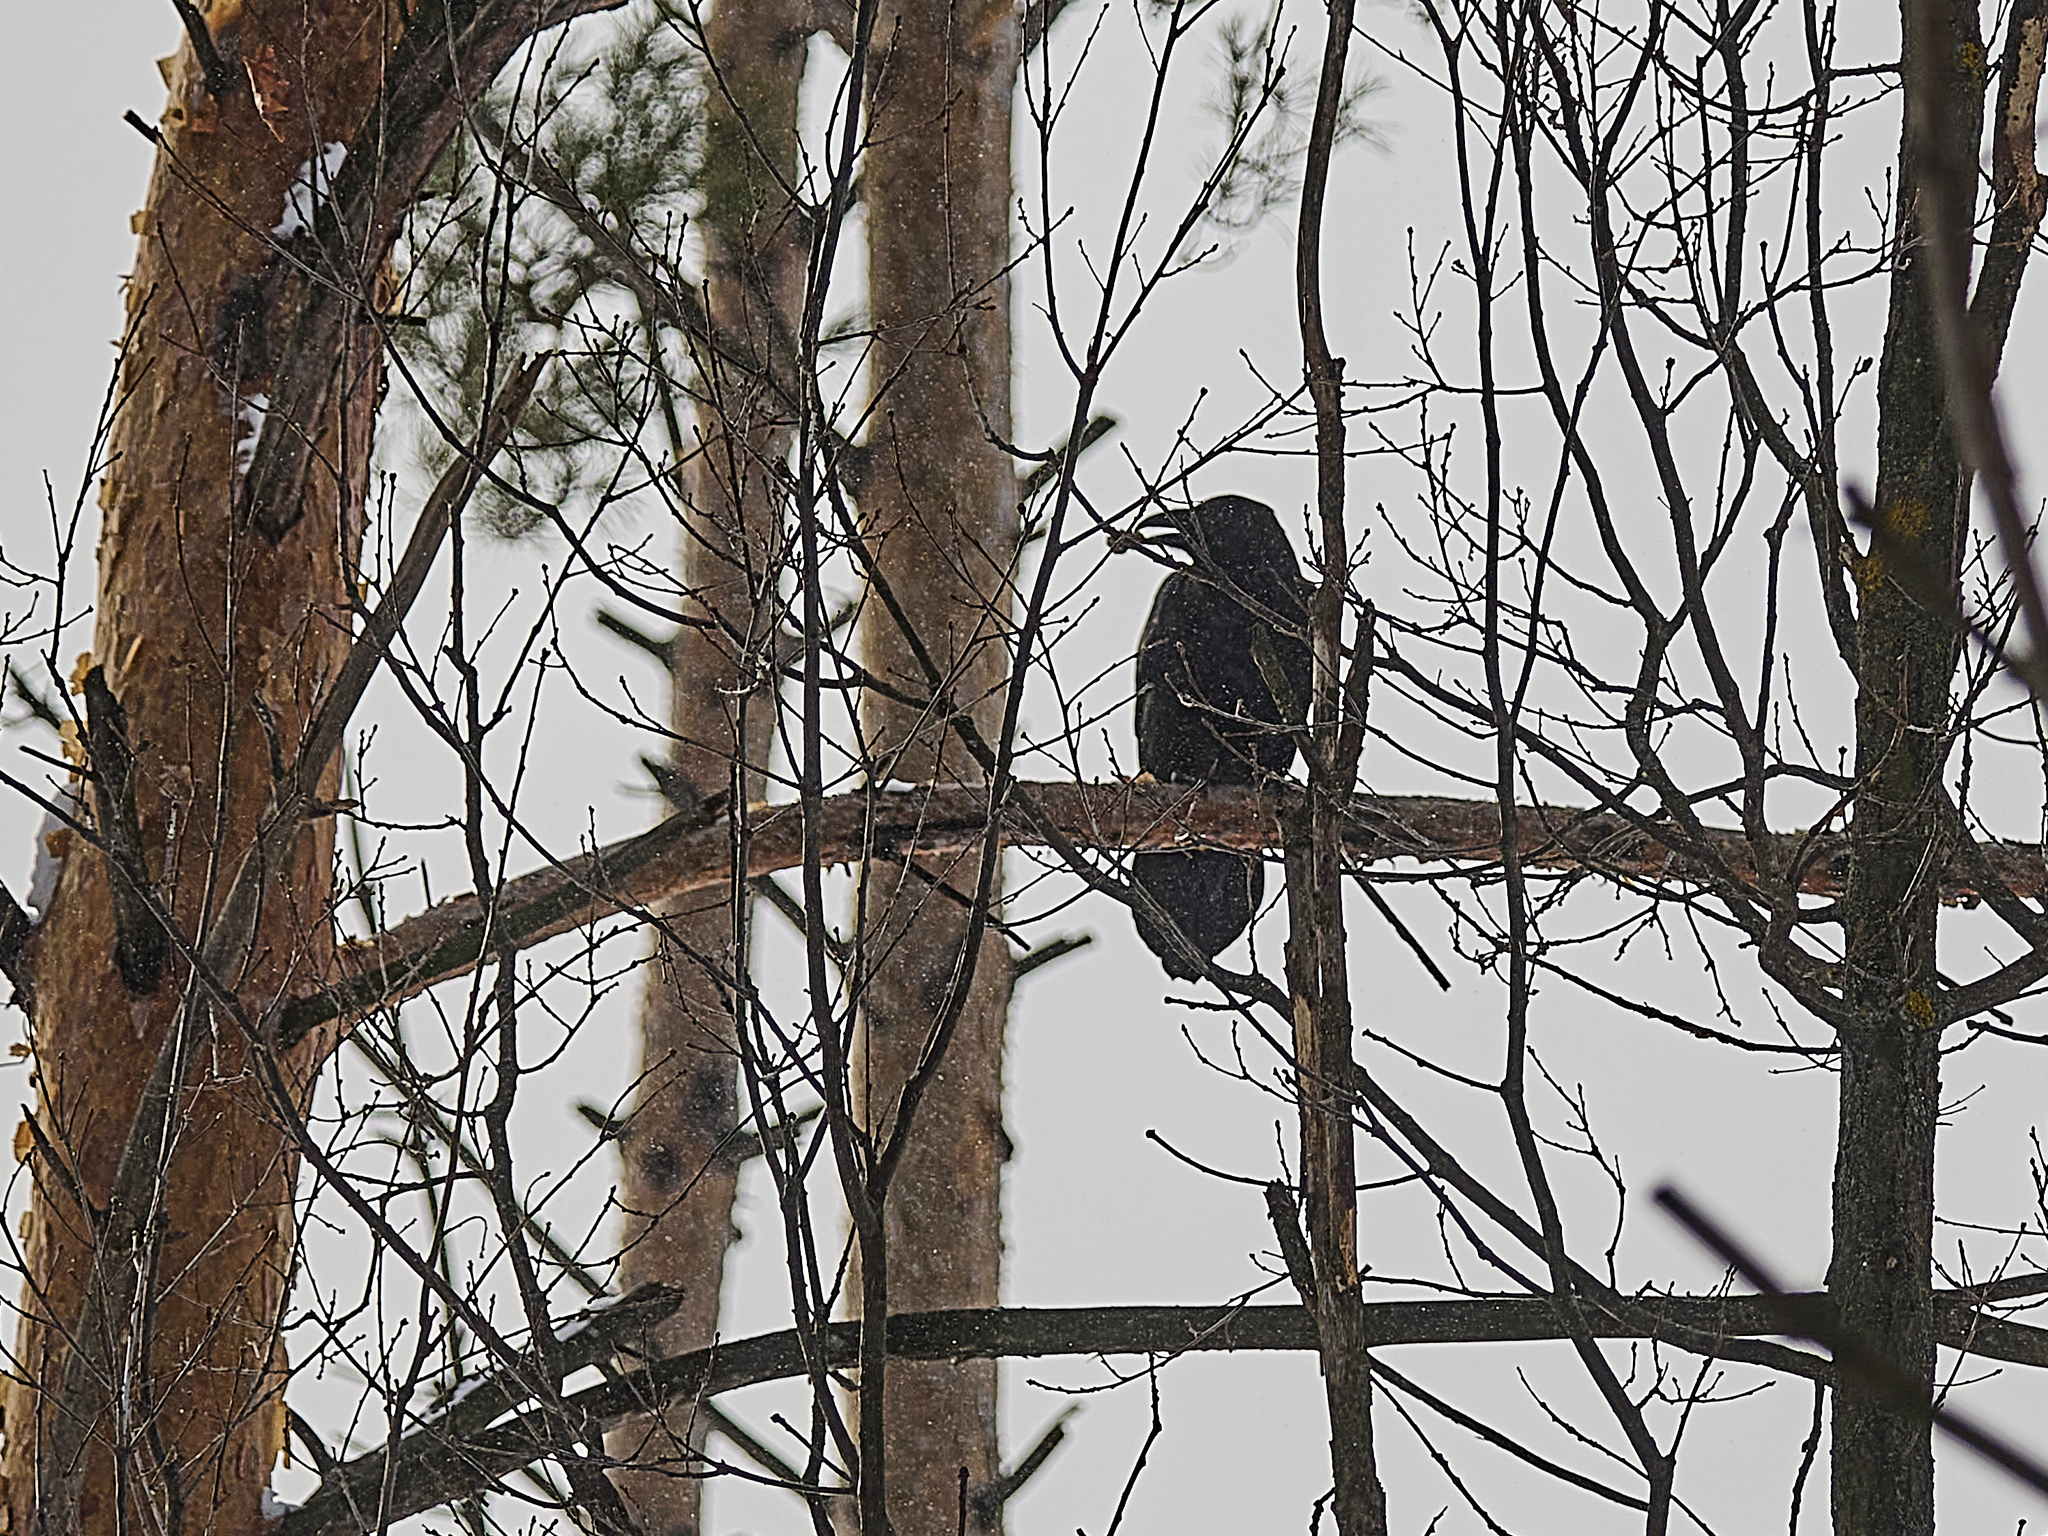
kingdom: Animalia
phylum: Chordata
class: Aves
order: Passeriformes
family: Corvidae
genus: Corvus
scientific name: Corvus corax
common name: Common raven
